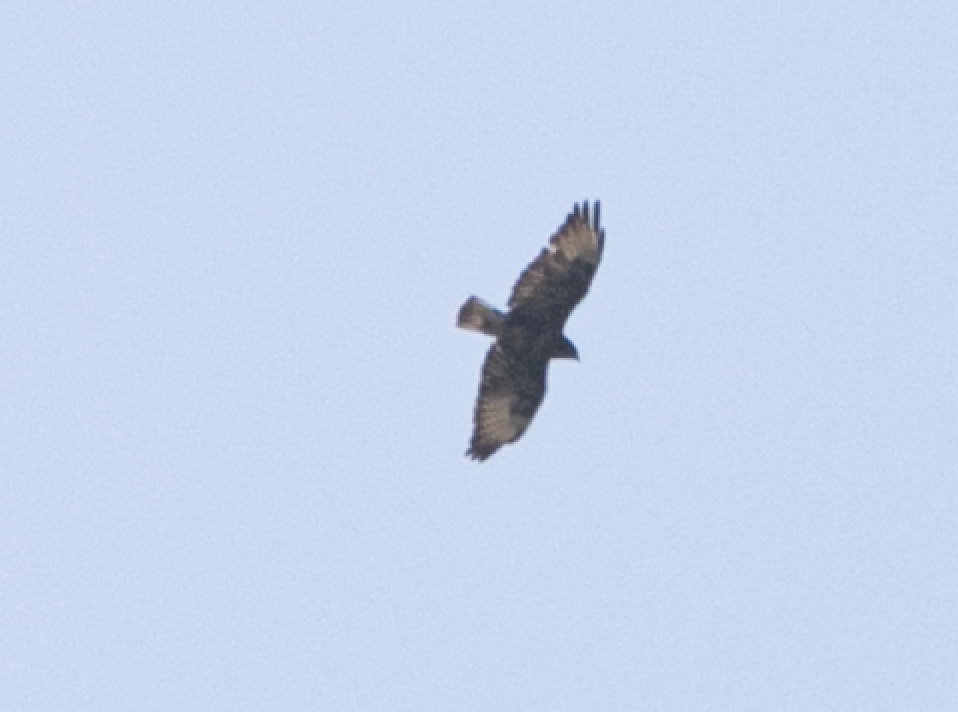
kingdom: Animalia
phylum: Chordata
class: Aves
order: Accipitriformes
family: Accipitridae
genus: Buteo
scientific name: Buteo buteo
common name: Common buzzard
